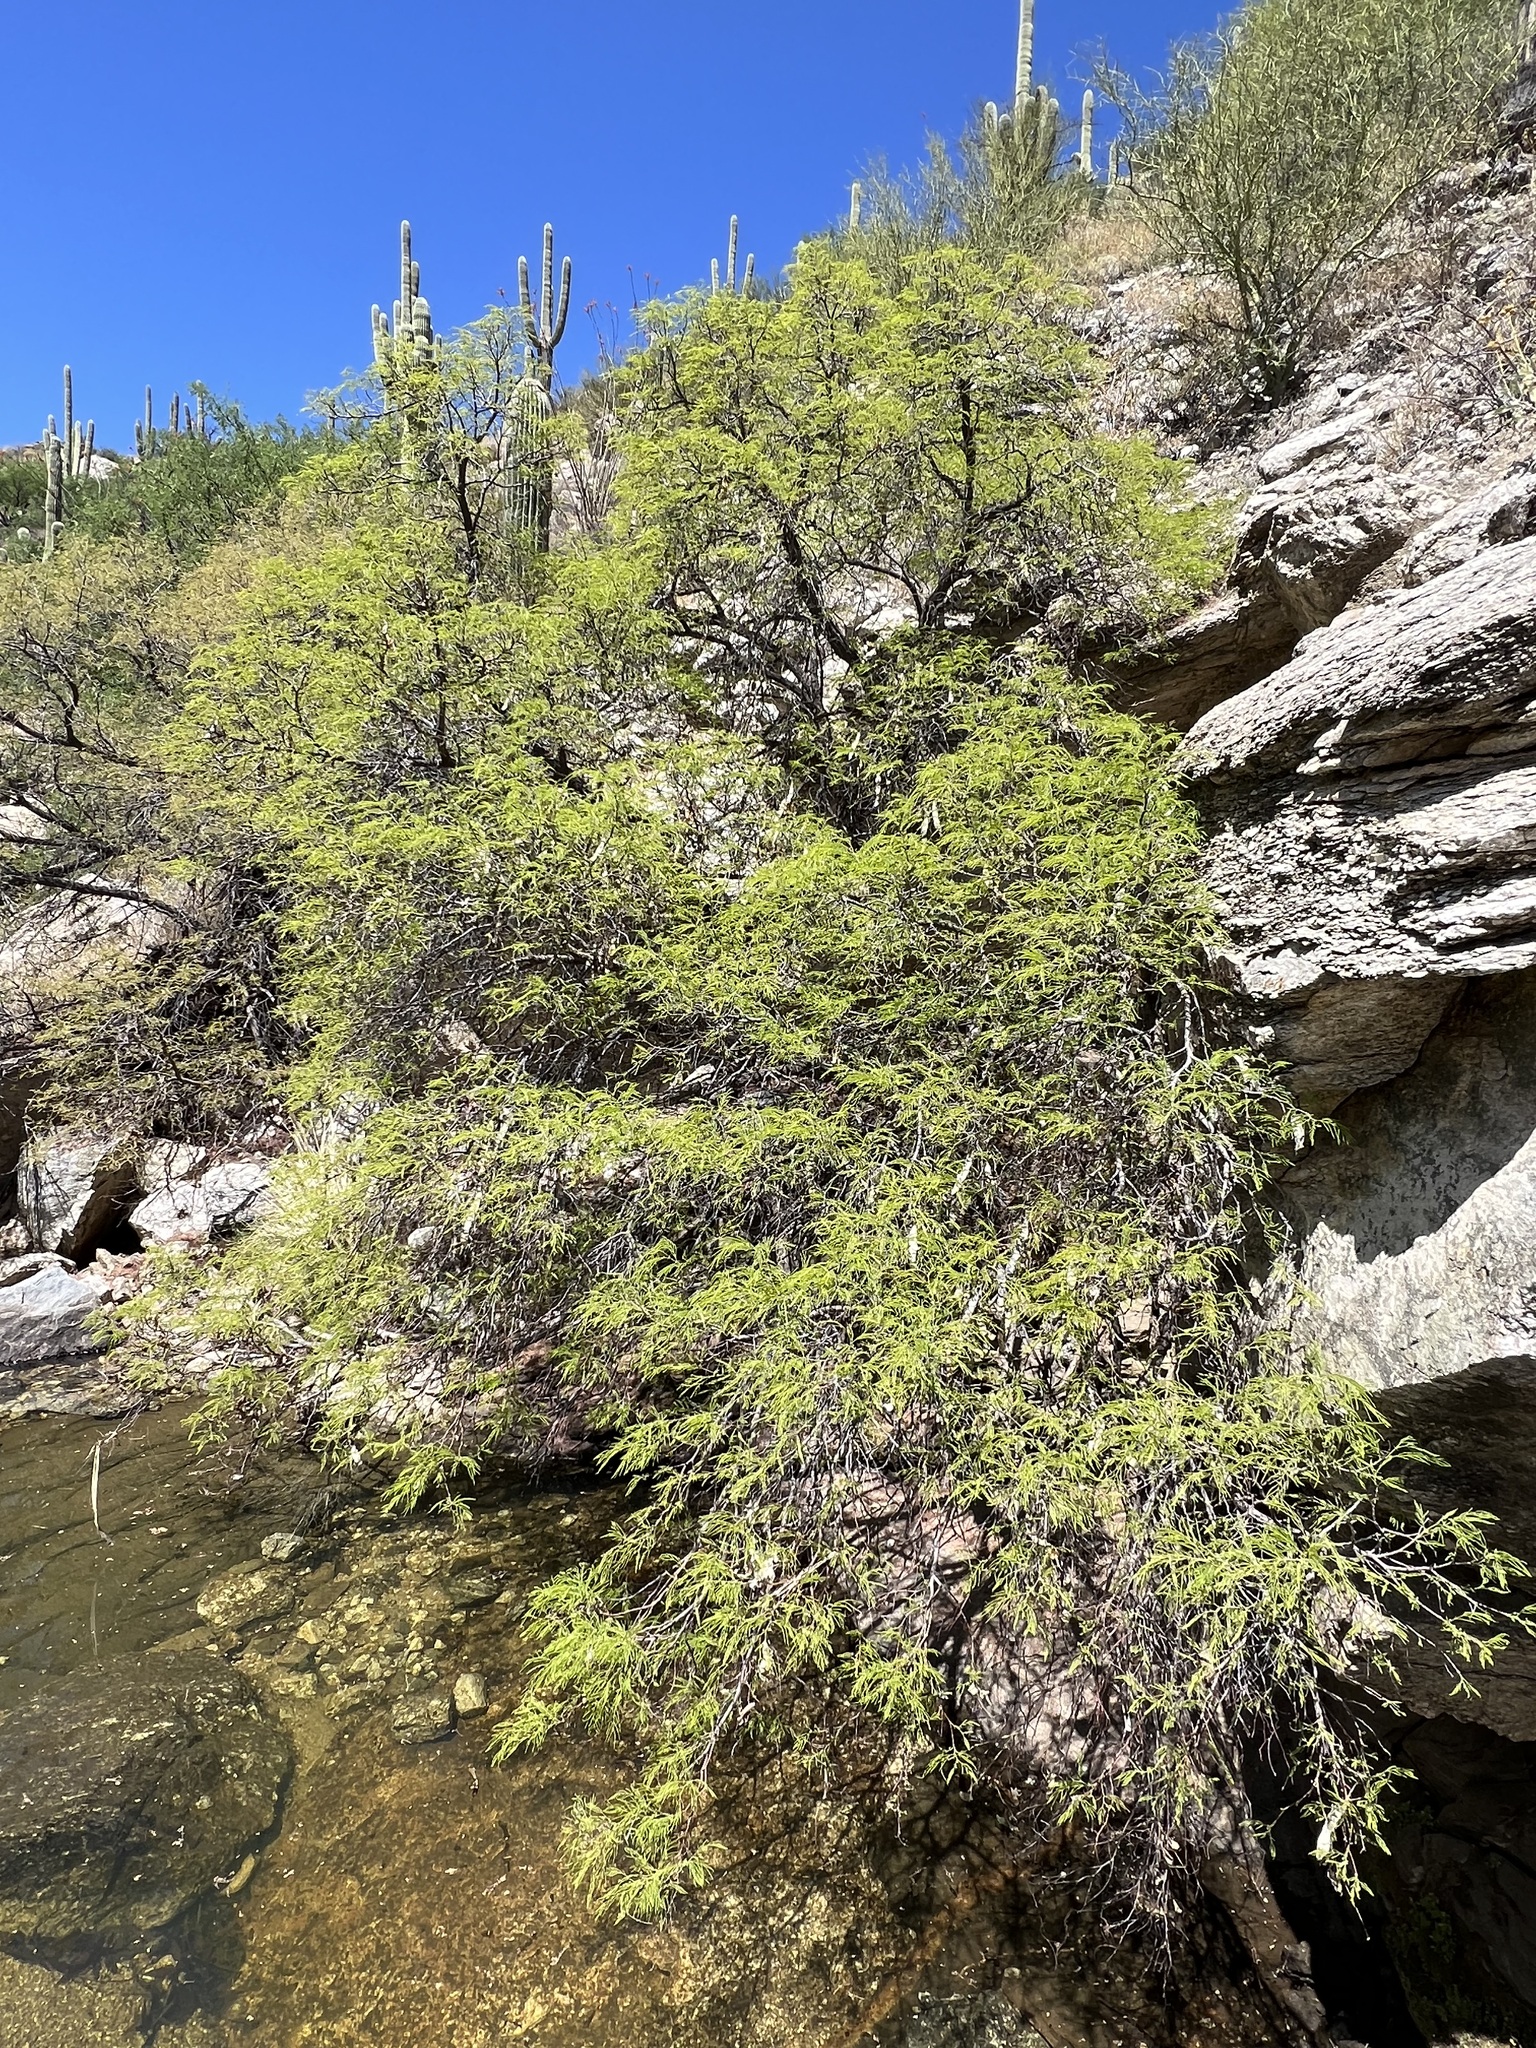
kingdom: Plantae
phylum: Tracheophyta
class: Magnoliopsida
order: Fabales
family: Fabaceae
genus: Lysiloma
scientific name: Lysiloma watsonii
